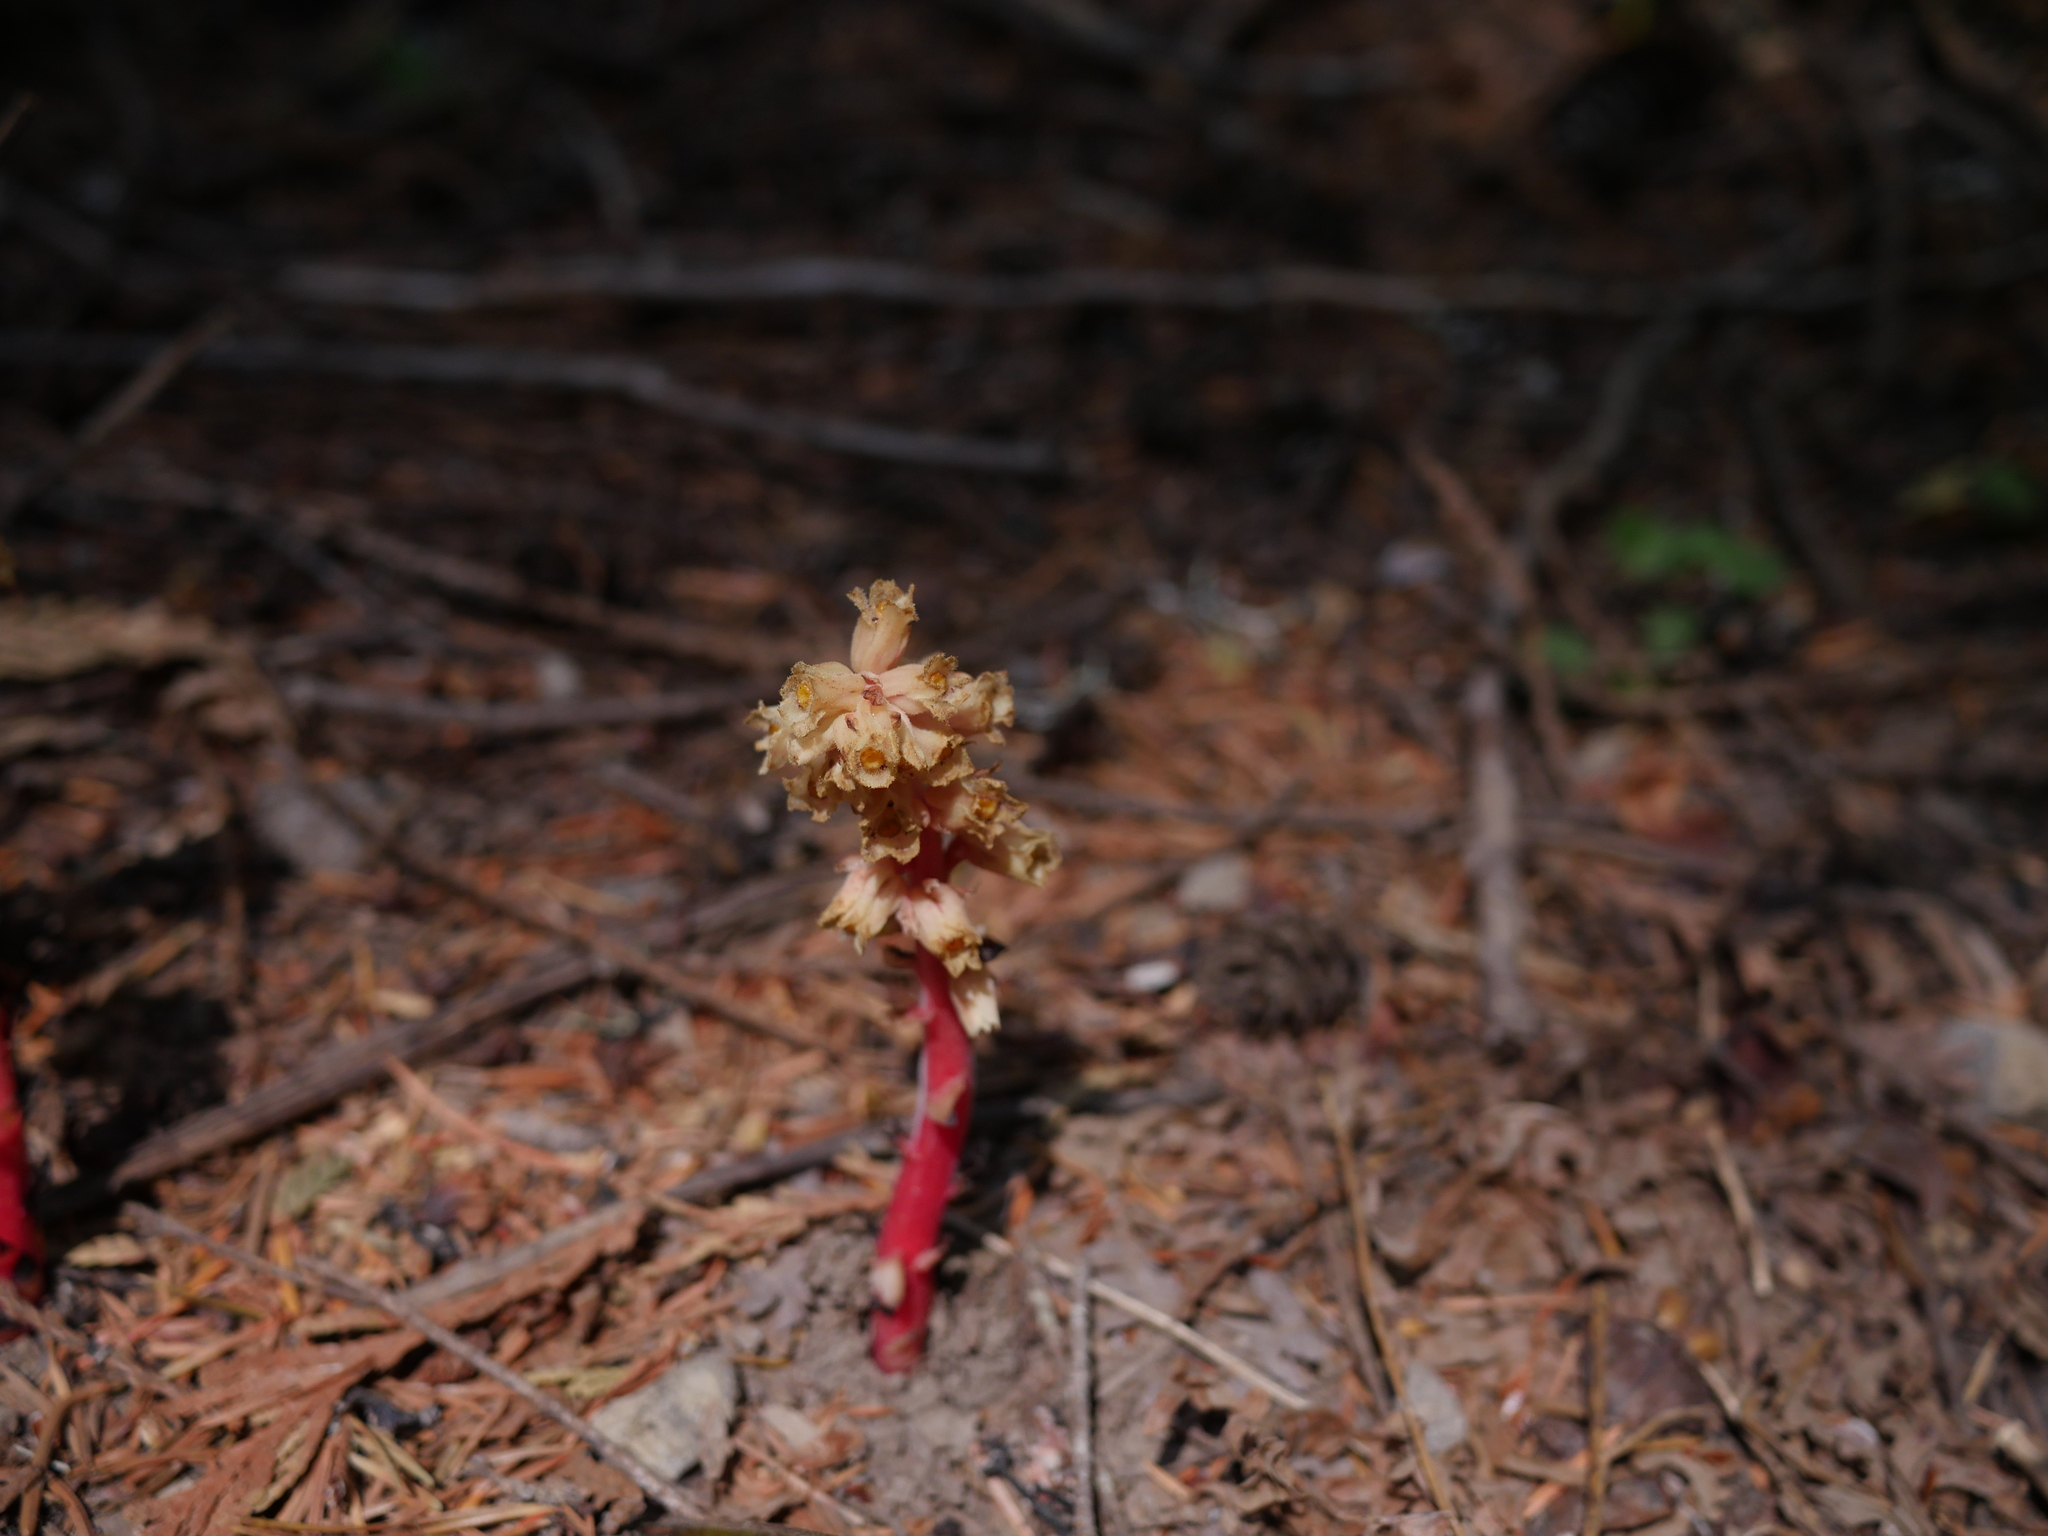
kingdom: Plantae
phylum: Tracheophyta
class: Magnoliopsida
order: Ericales
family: Ericaceae
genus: Hypopitys
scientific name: Hypopitys monotropa
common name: Yellow bird's-nest
